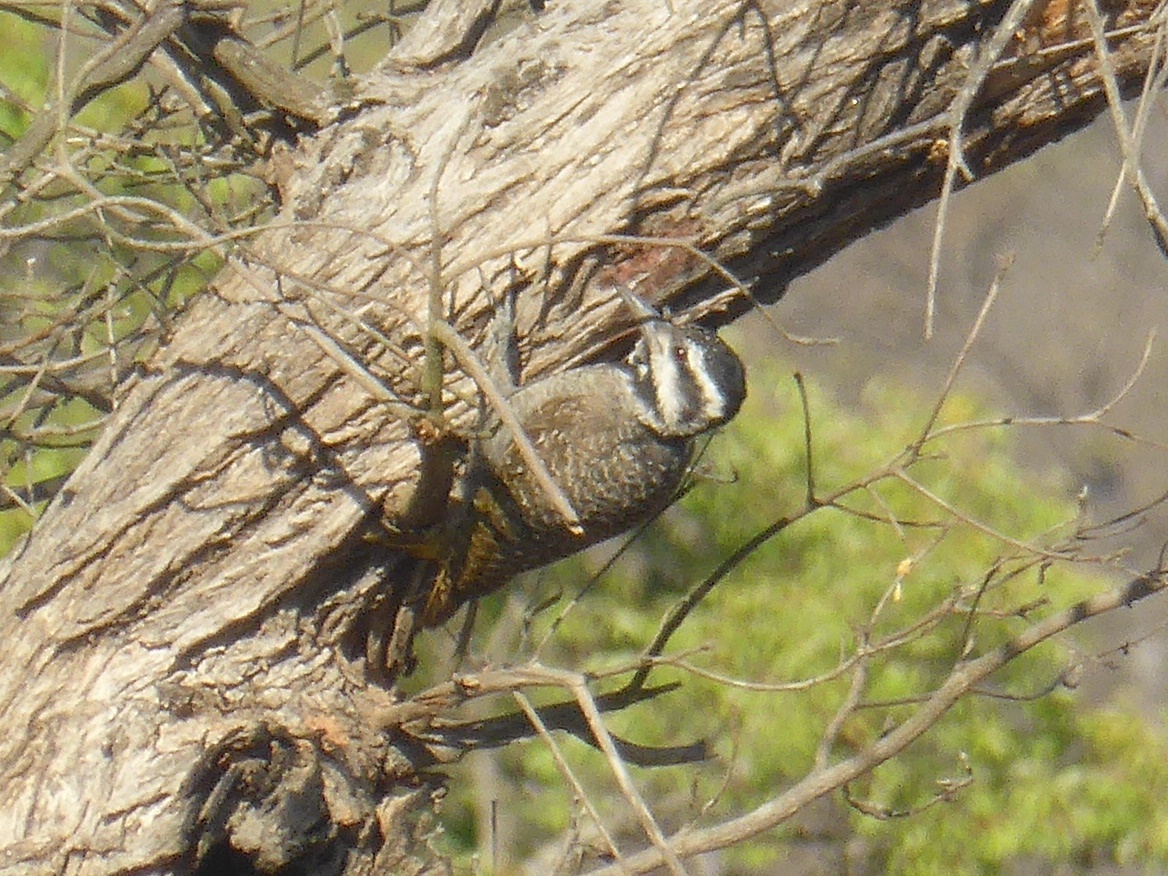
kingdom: Animalia
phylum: Chordata
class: Aves
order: Piciformes
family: Picidae
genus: Chloropicus
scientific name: Chloropicus namaquus
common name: Bearded woodpecker
